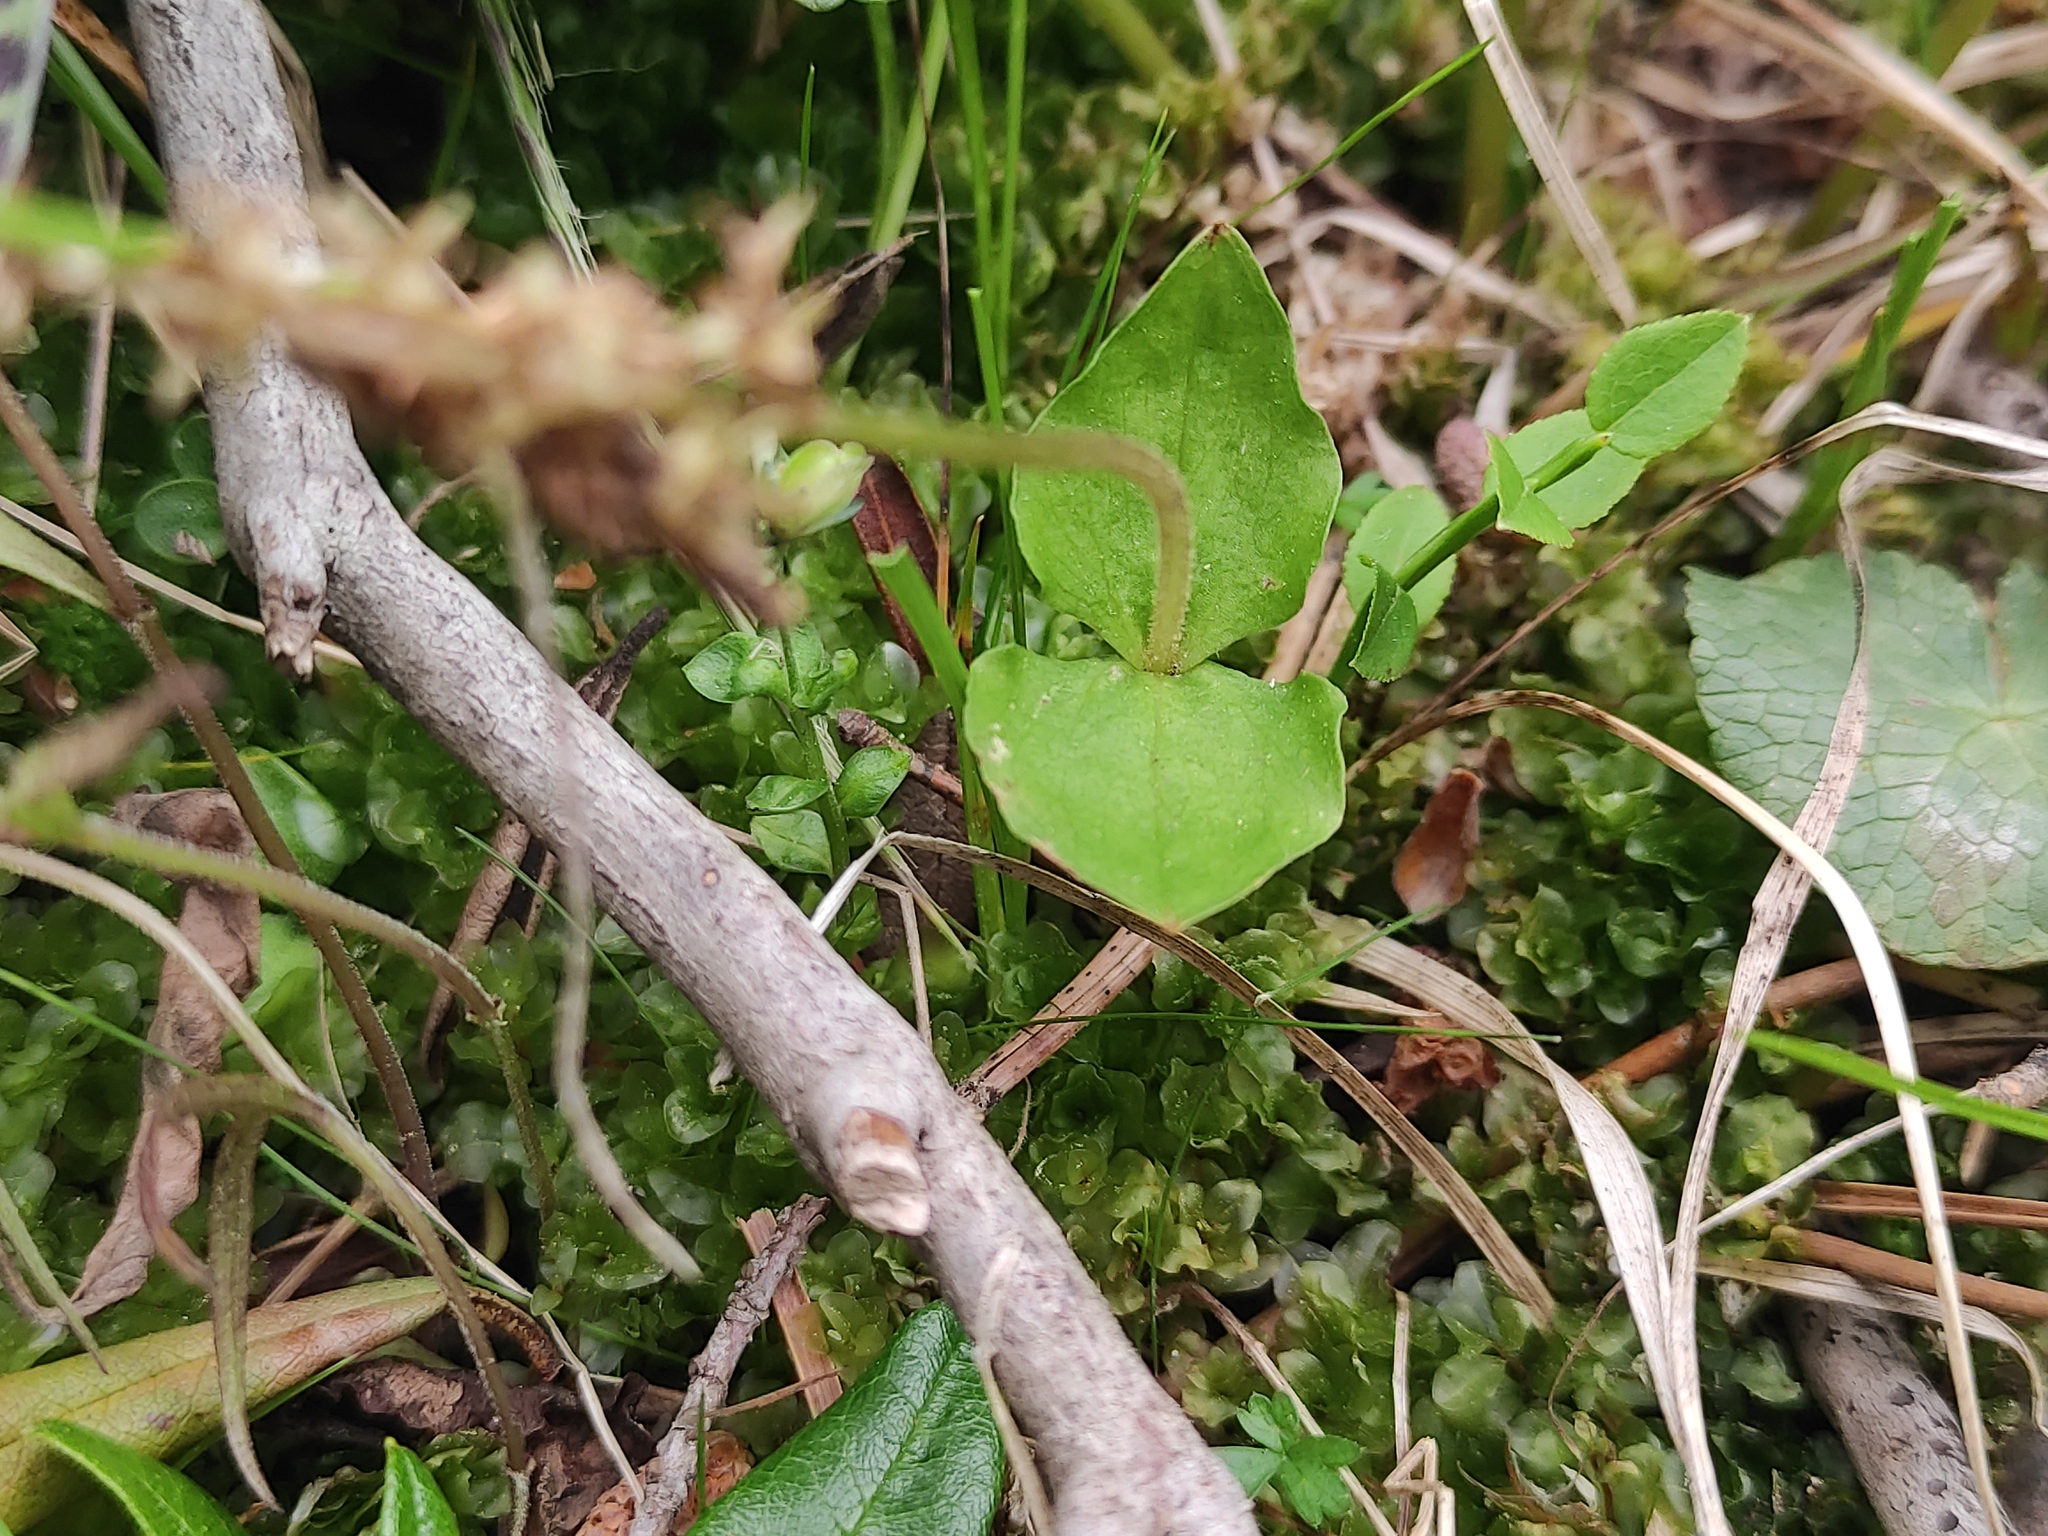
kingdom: Plantae
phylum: Tracheophyta
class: Liliopsida
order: Asparagales
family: Orchidaceae
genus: Neottia
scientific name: Neottia cordata
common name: Lesser twayblade
